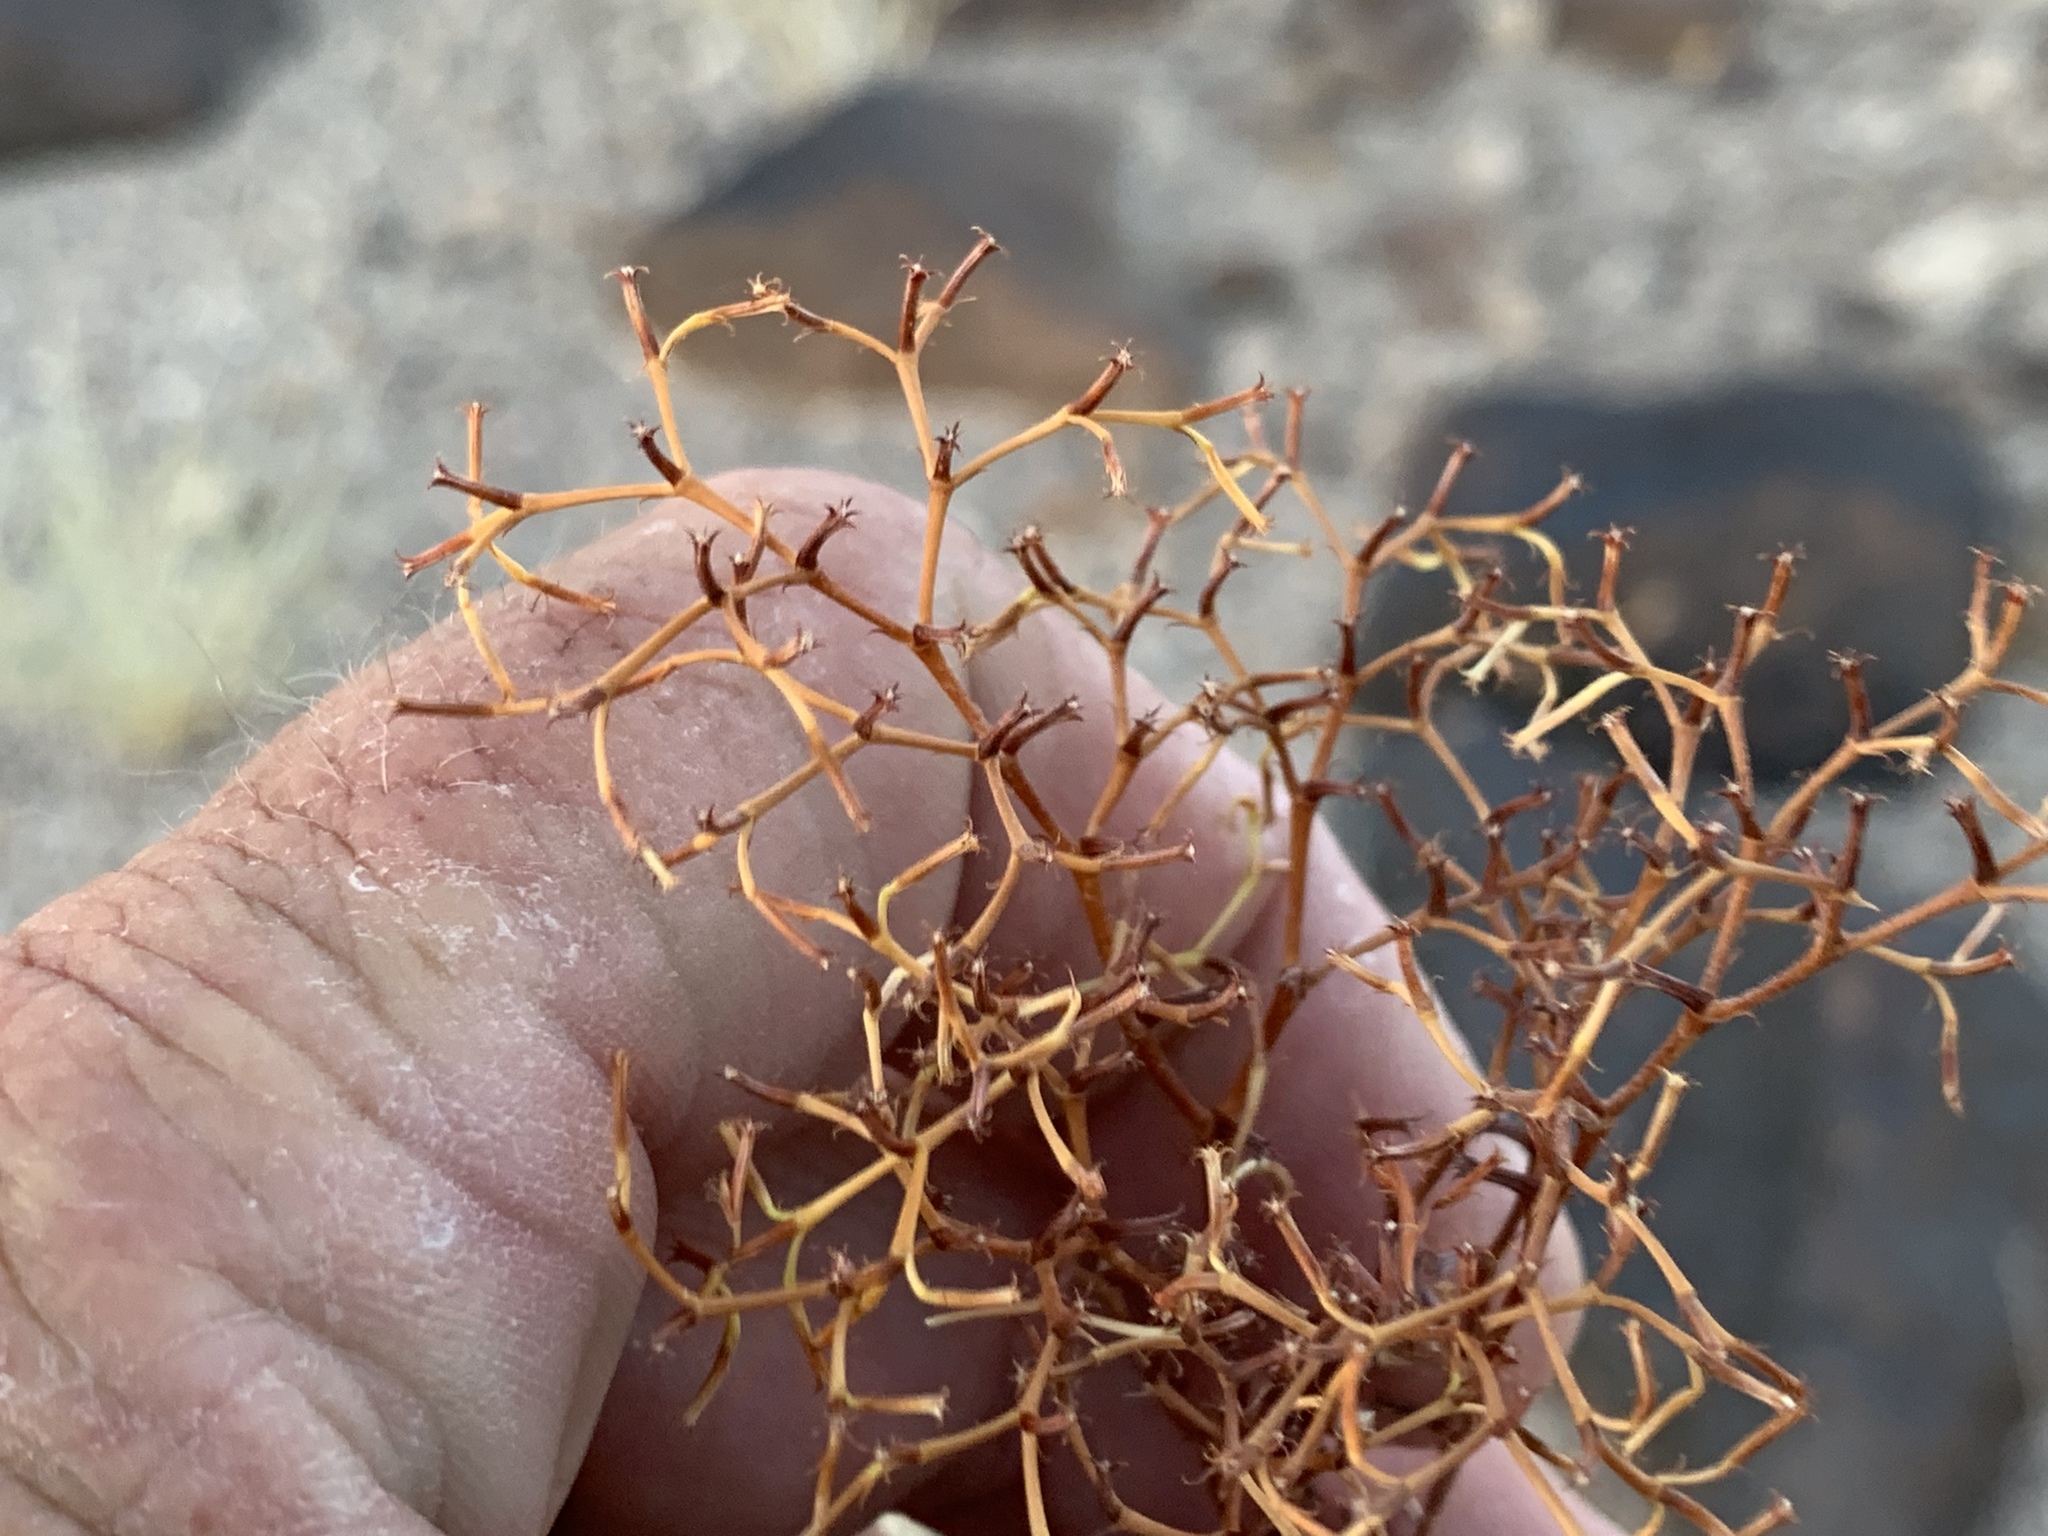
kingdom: Plantae
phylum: Tracheophyta
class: Magnoliopsida
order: Caryophyllales
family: Polygonaceae
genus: Chorizanthe
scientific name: Chorizanthe brevicornu
